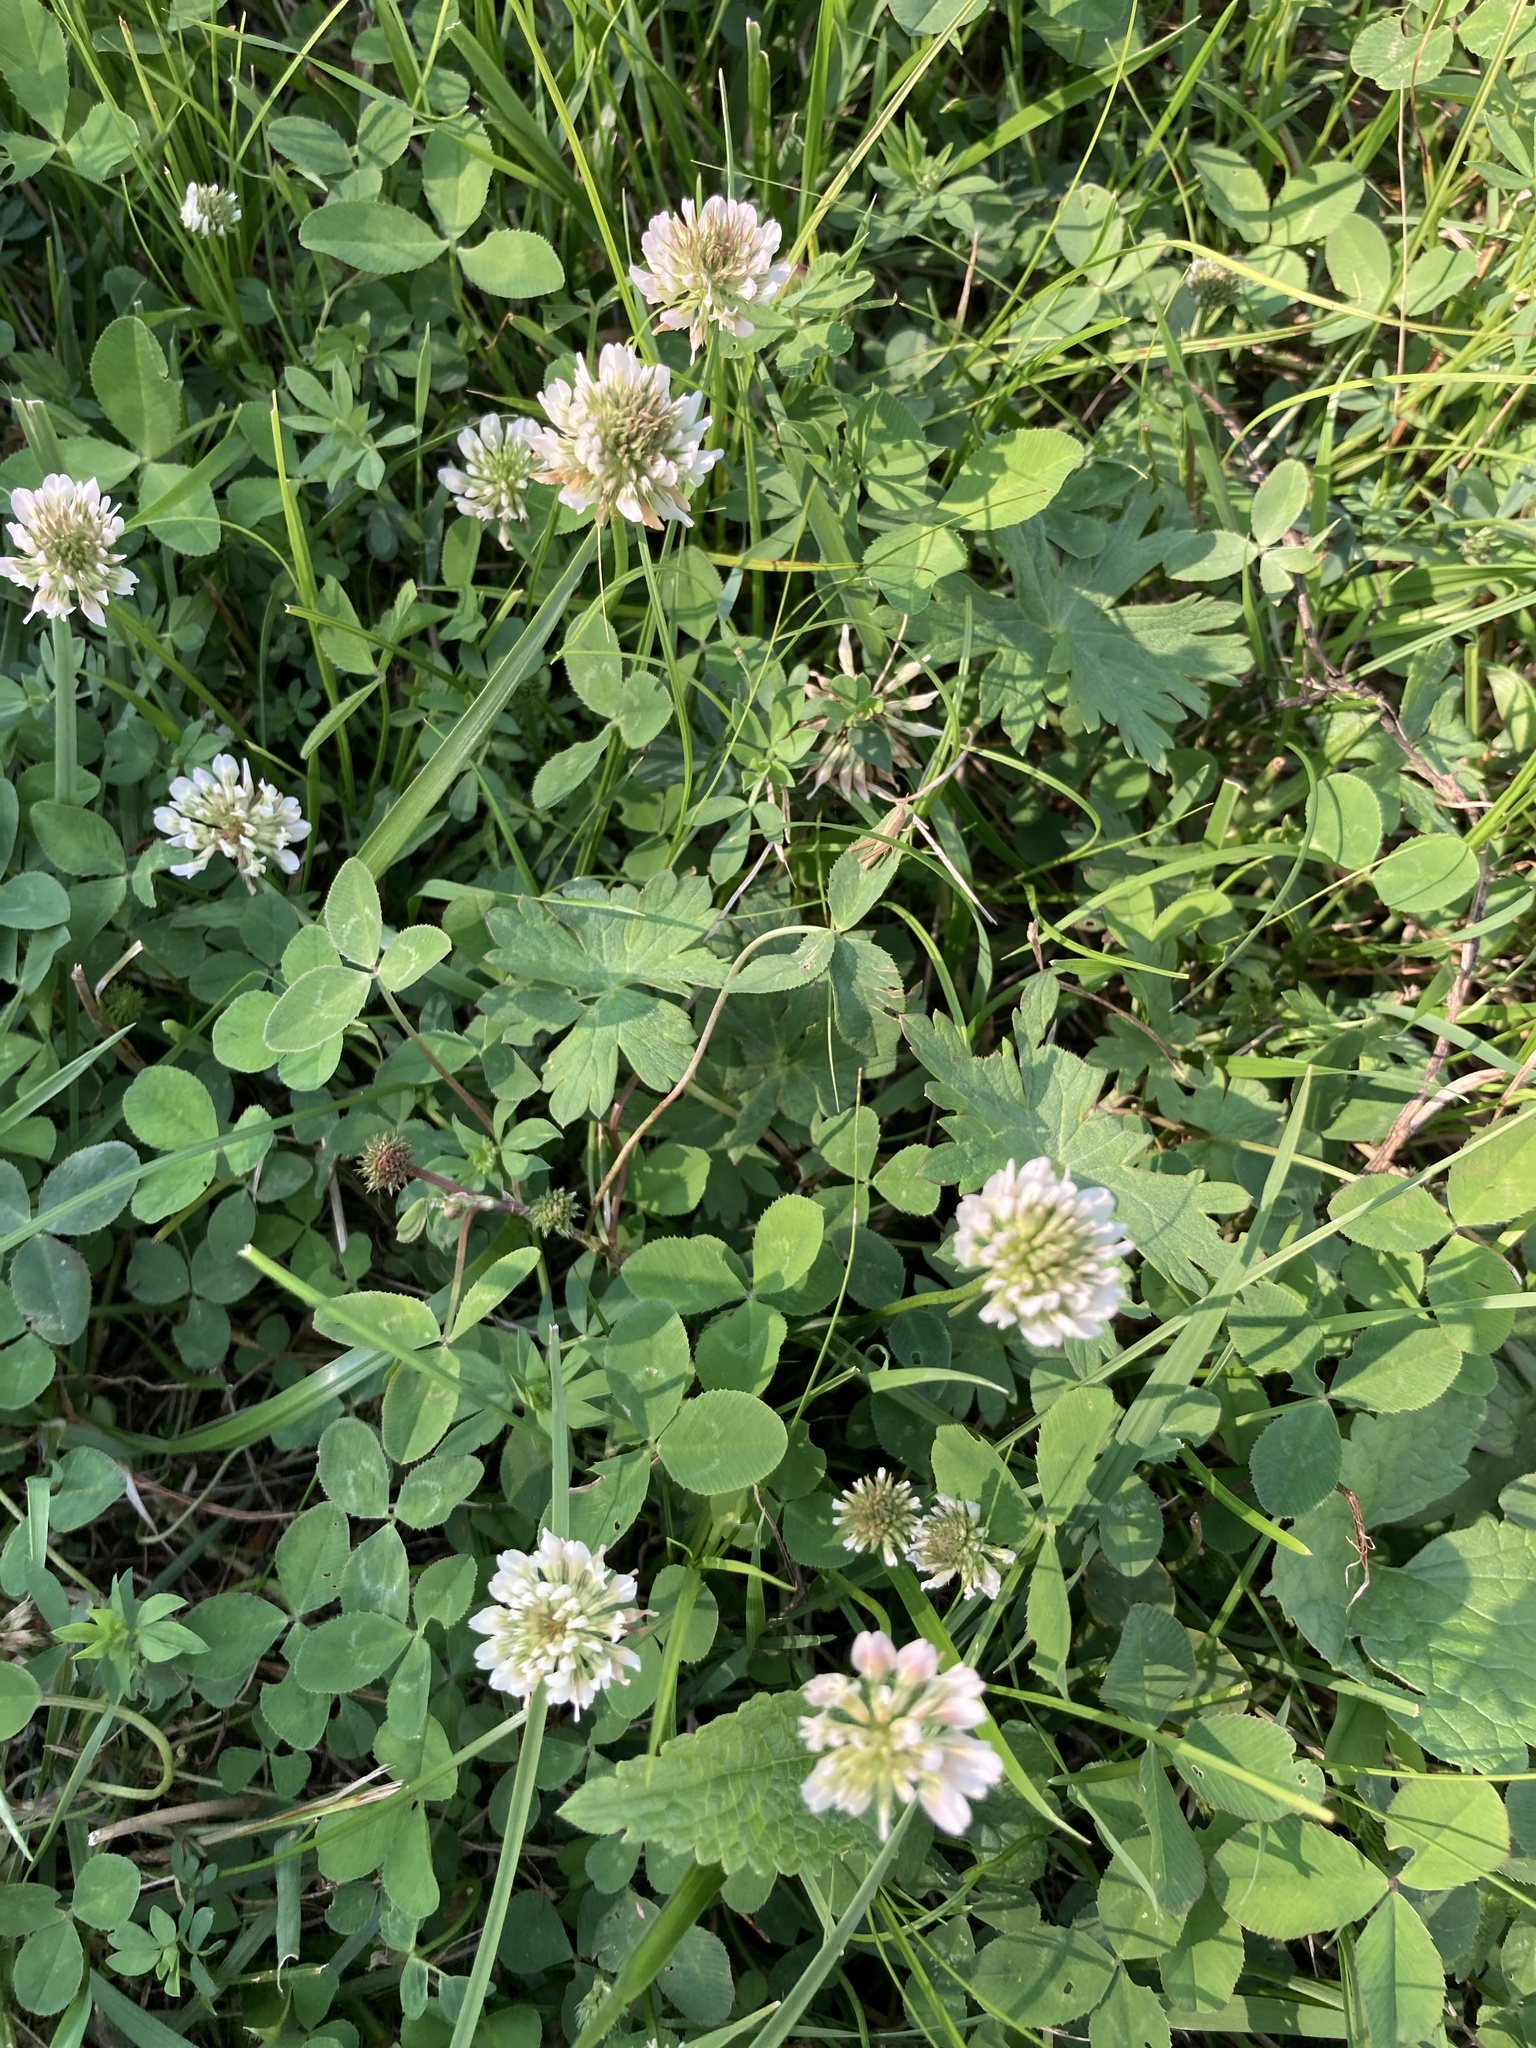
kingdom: Plantae
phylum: Tracheophyta
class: Magnoliopsida
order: Fabales
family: Fabaceae
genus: Trifolium
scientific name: Trifolium repens
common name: White clover
